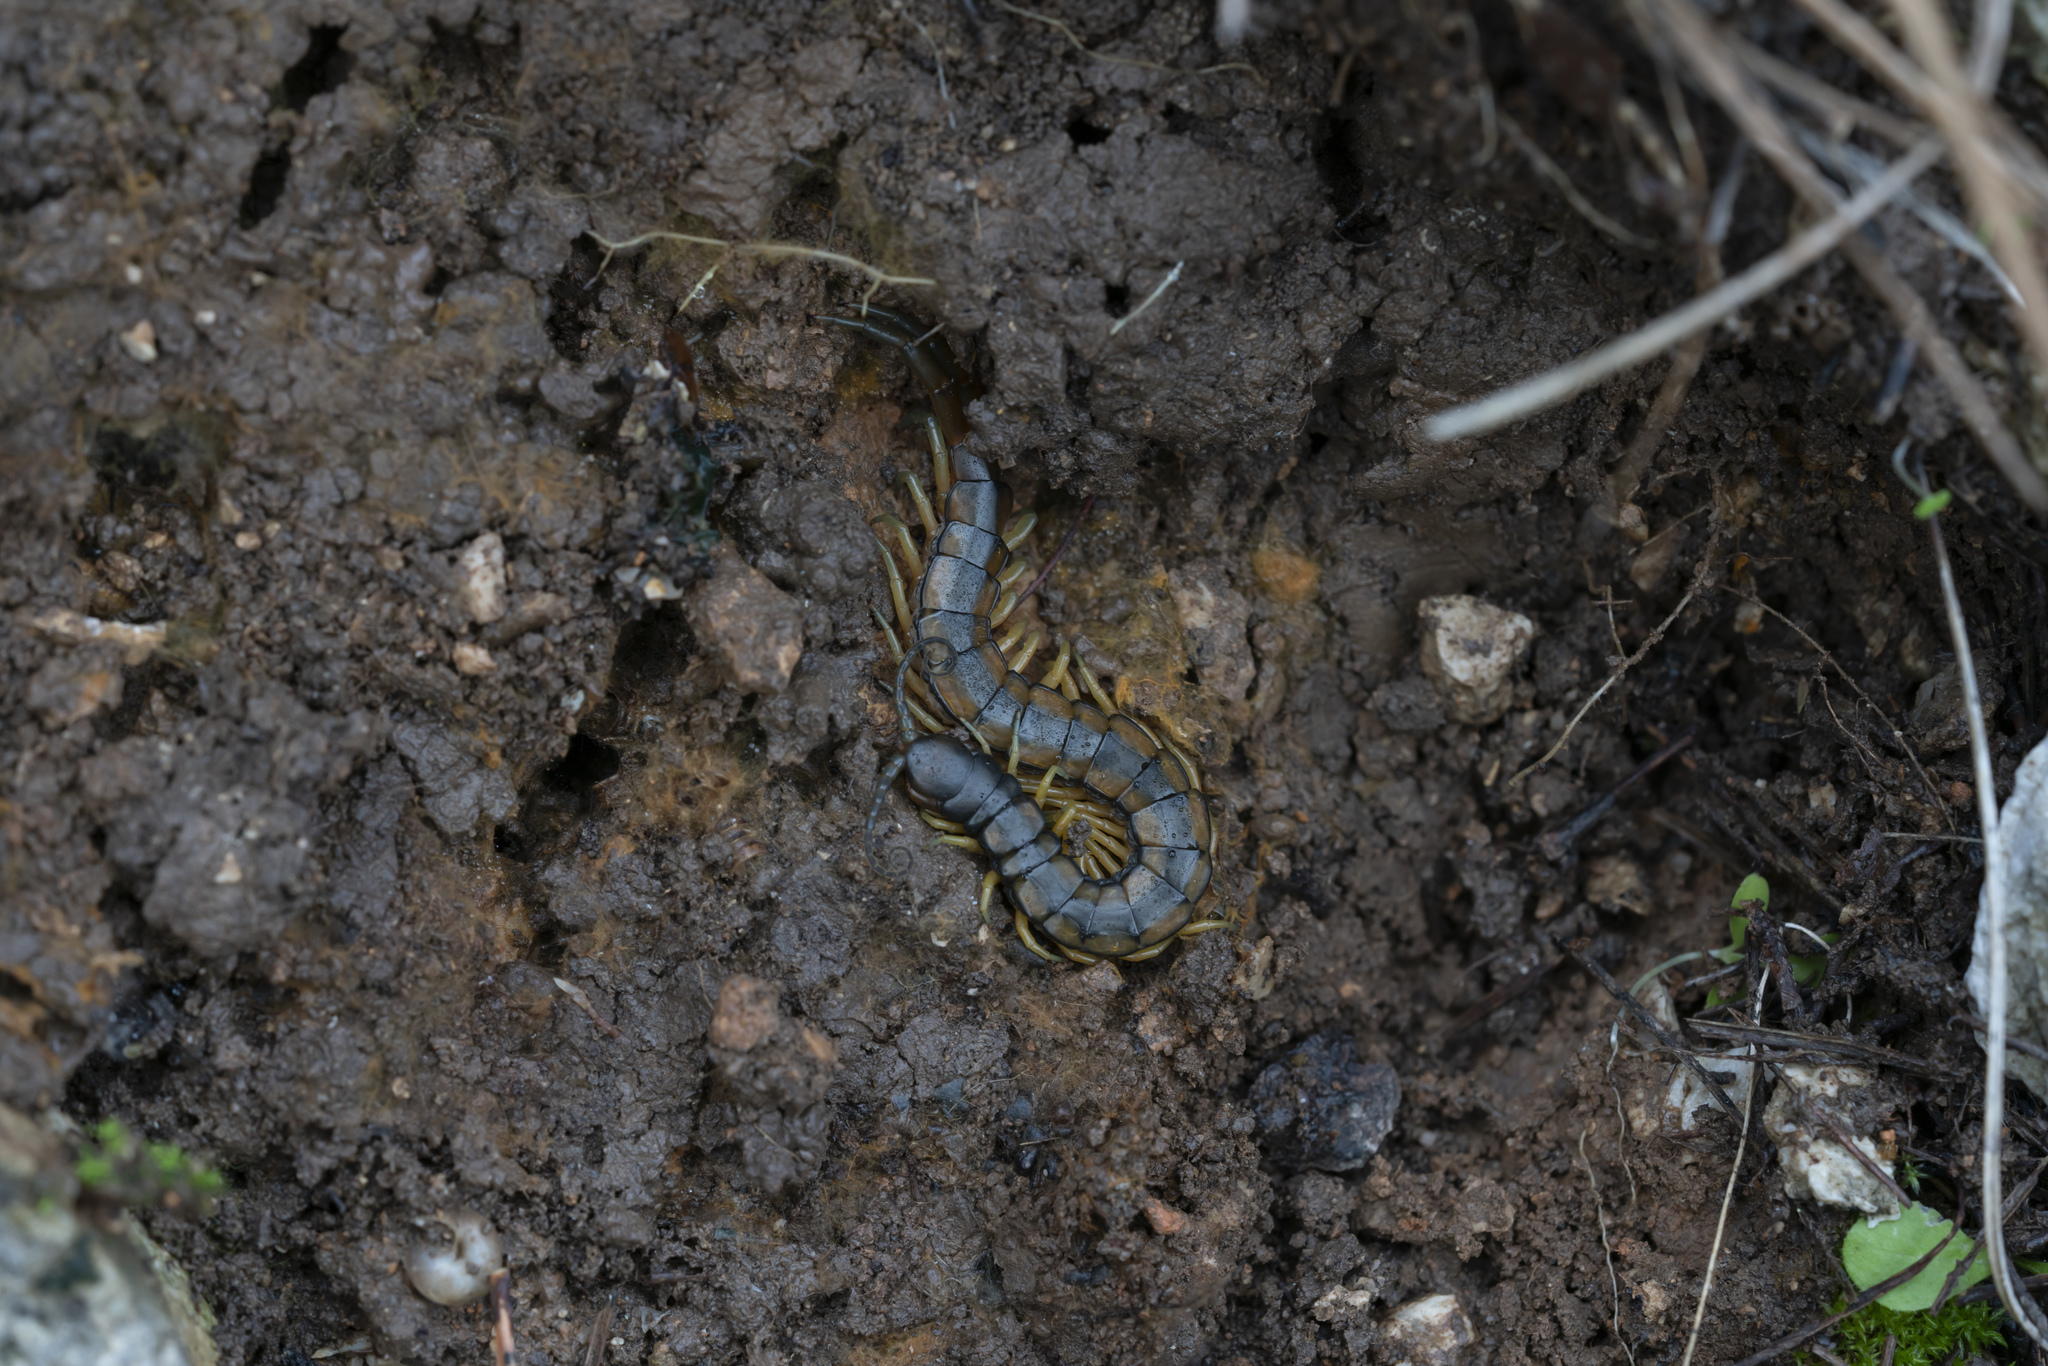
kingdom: Animalia
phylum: Arthropoda
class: Chilopoda
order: Scolopendromorpha
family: Scolopendridae
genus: Scolopendra
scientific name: Scolopendra cingulata
